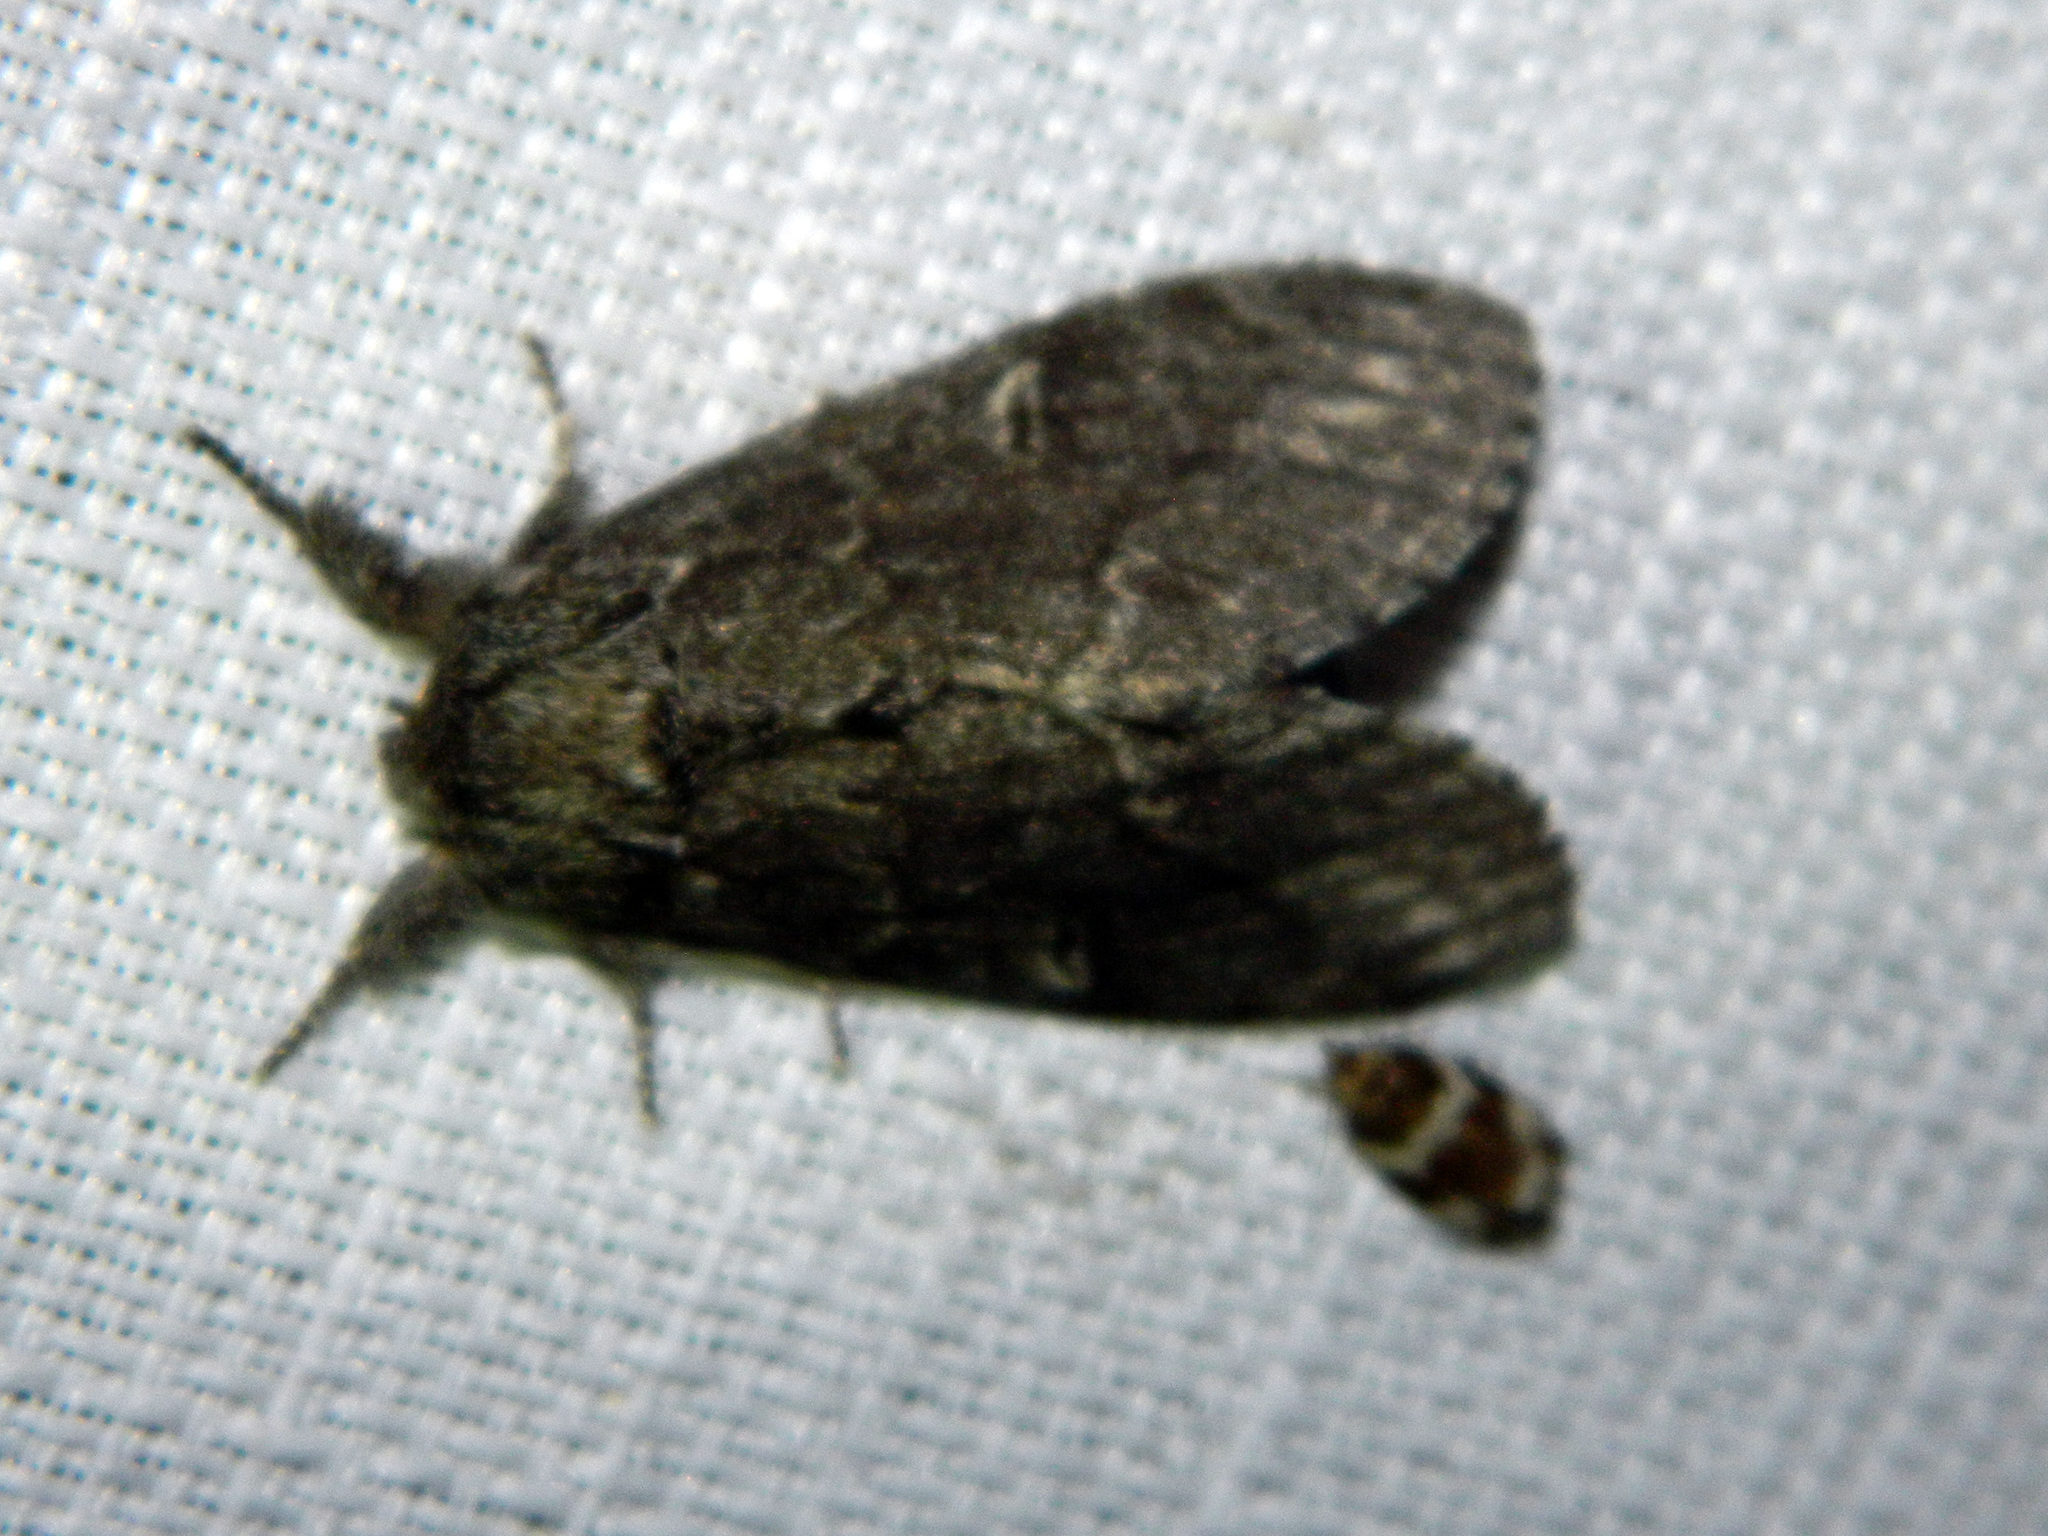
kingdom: Animalia
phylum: Arthropoda
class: Insecta
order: Lepidoptera
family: Notodontidae
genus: Notodonta
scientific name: Notodonta torva
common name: Large dark prominent
